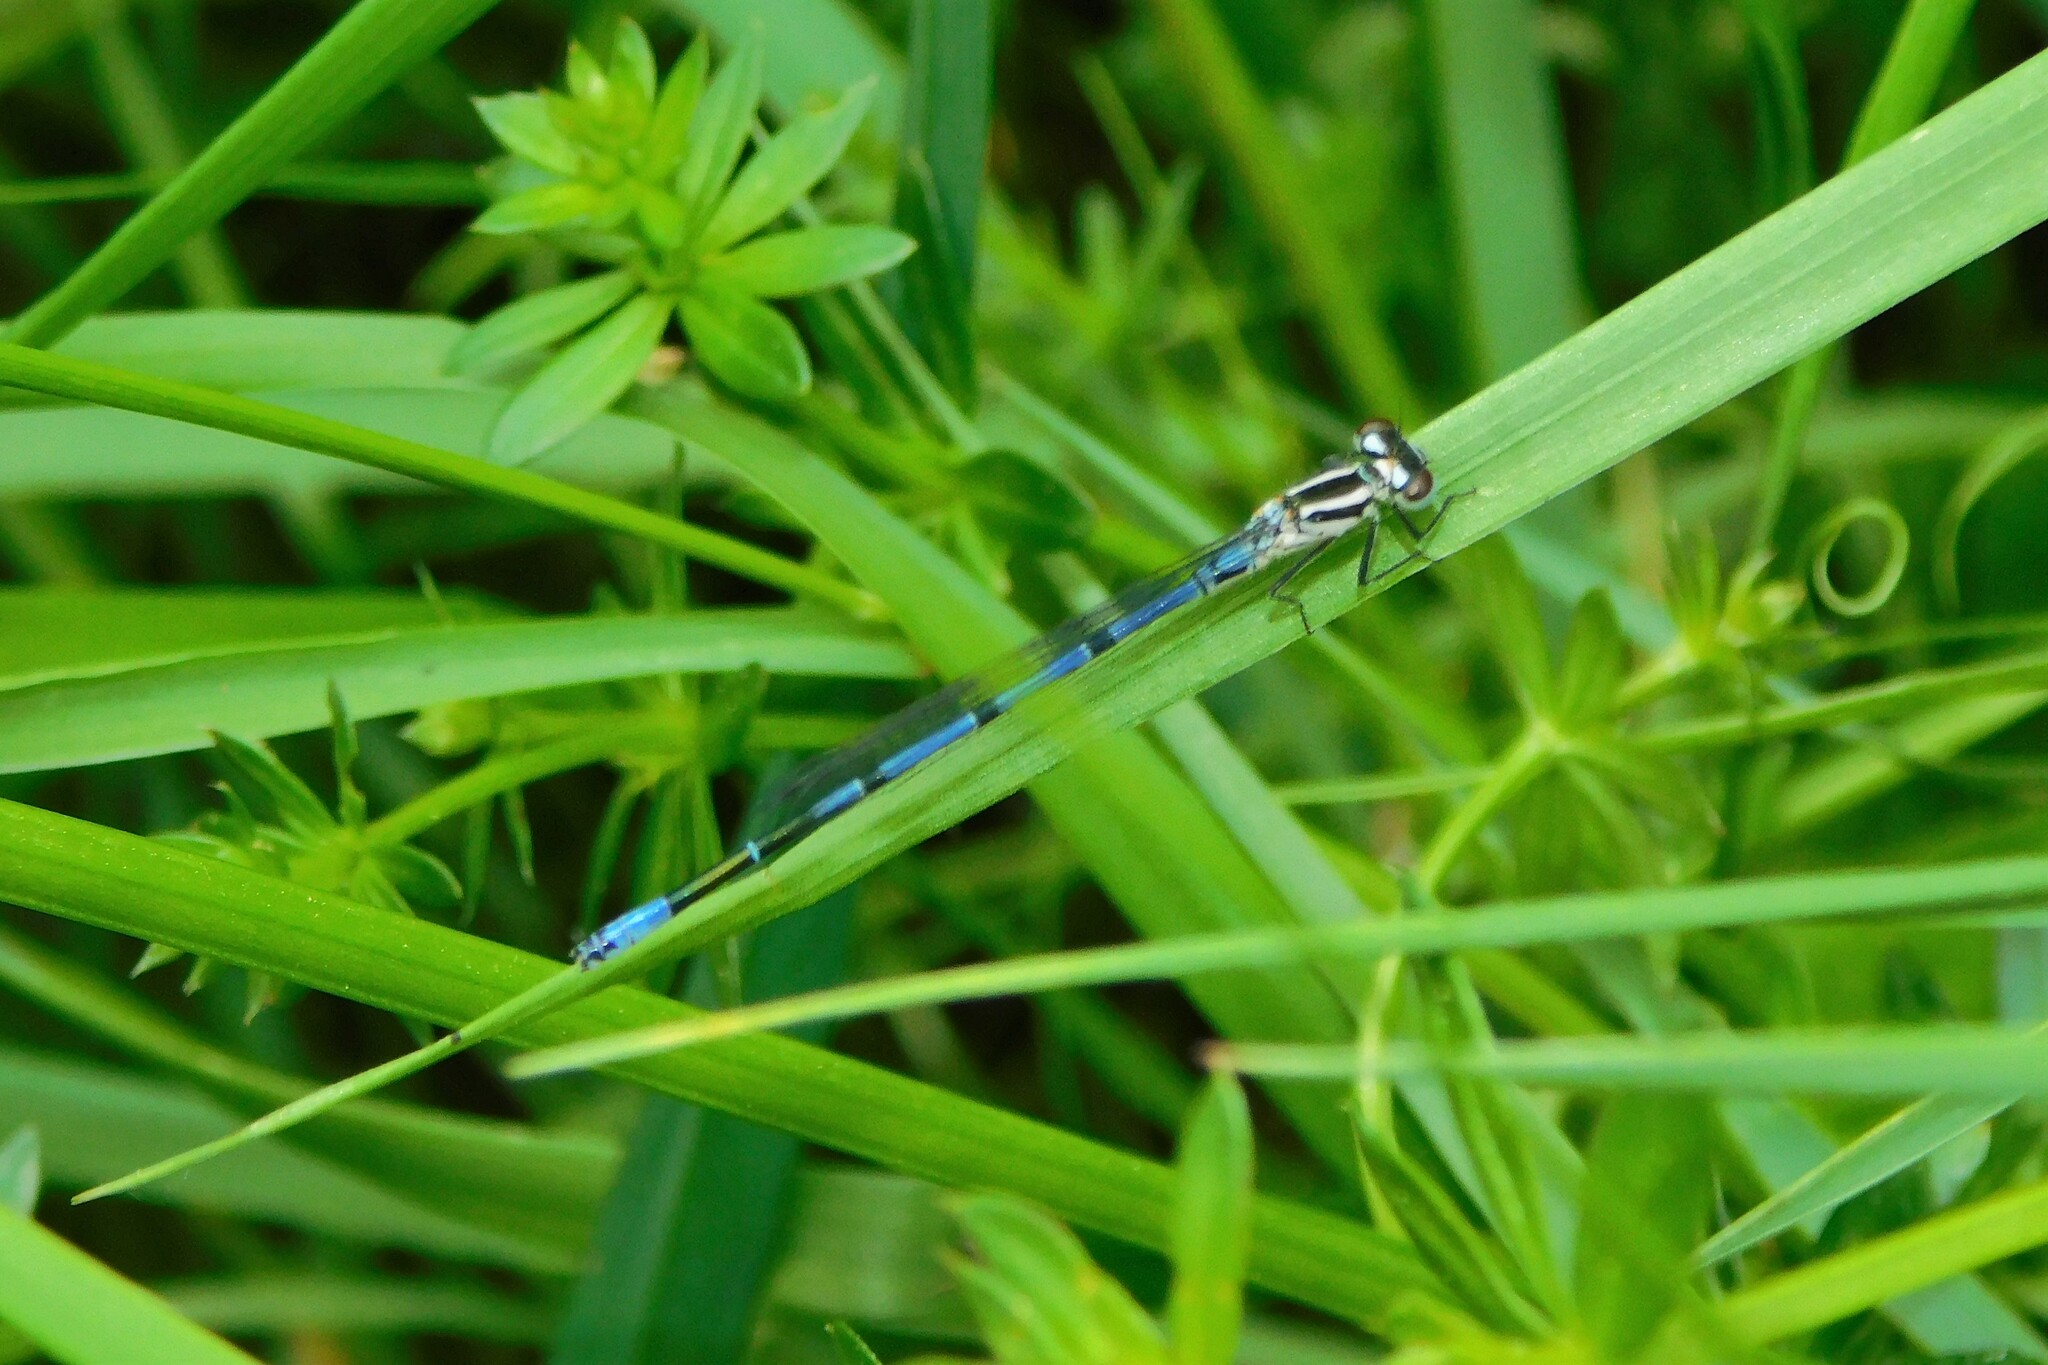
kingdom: Animalia
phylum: Arthropoda
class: Insecta
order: Odonata
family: Coenagrionidae
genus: Coenagrion
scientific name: Coenagrion puella
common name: Azure damselfly
